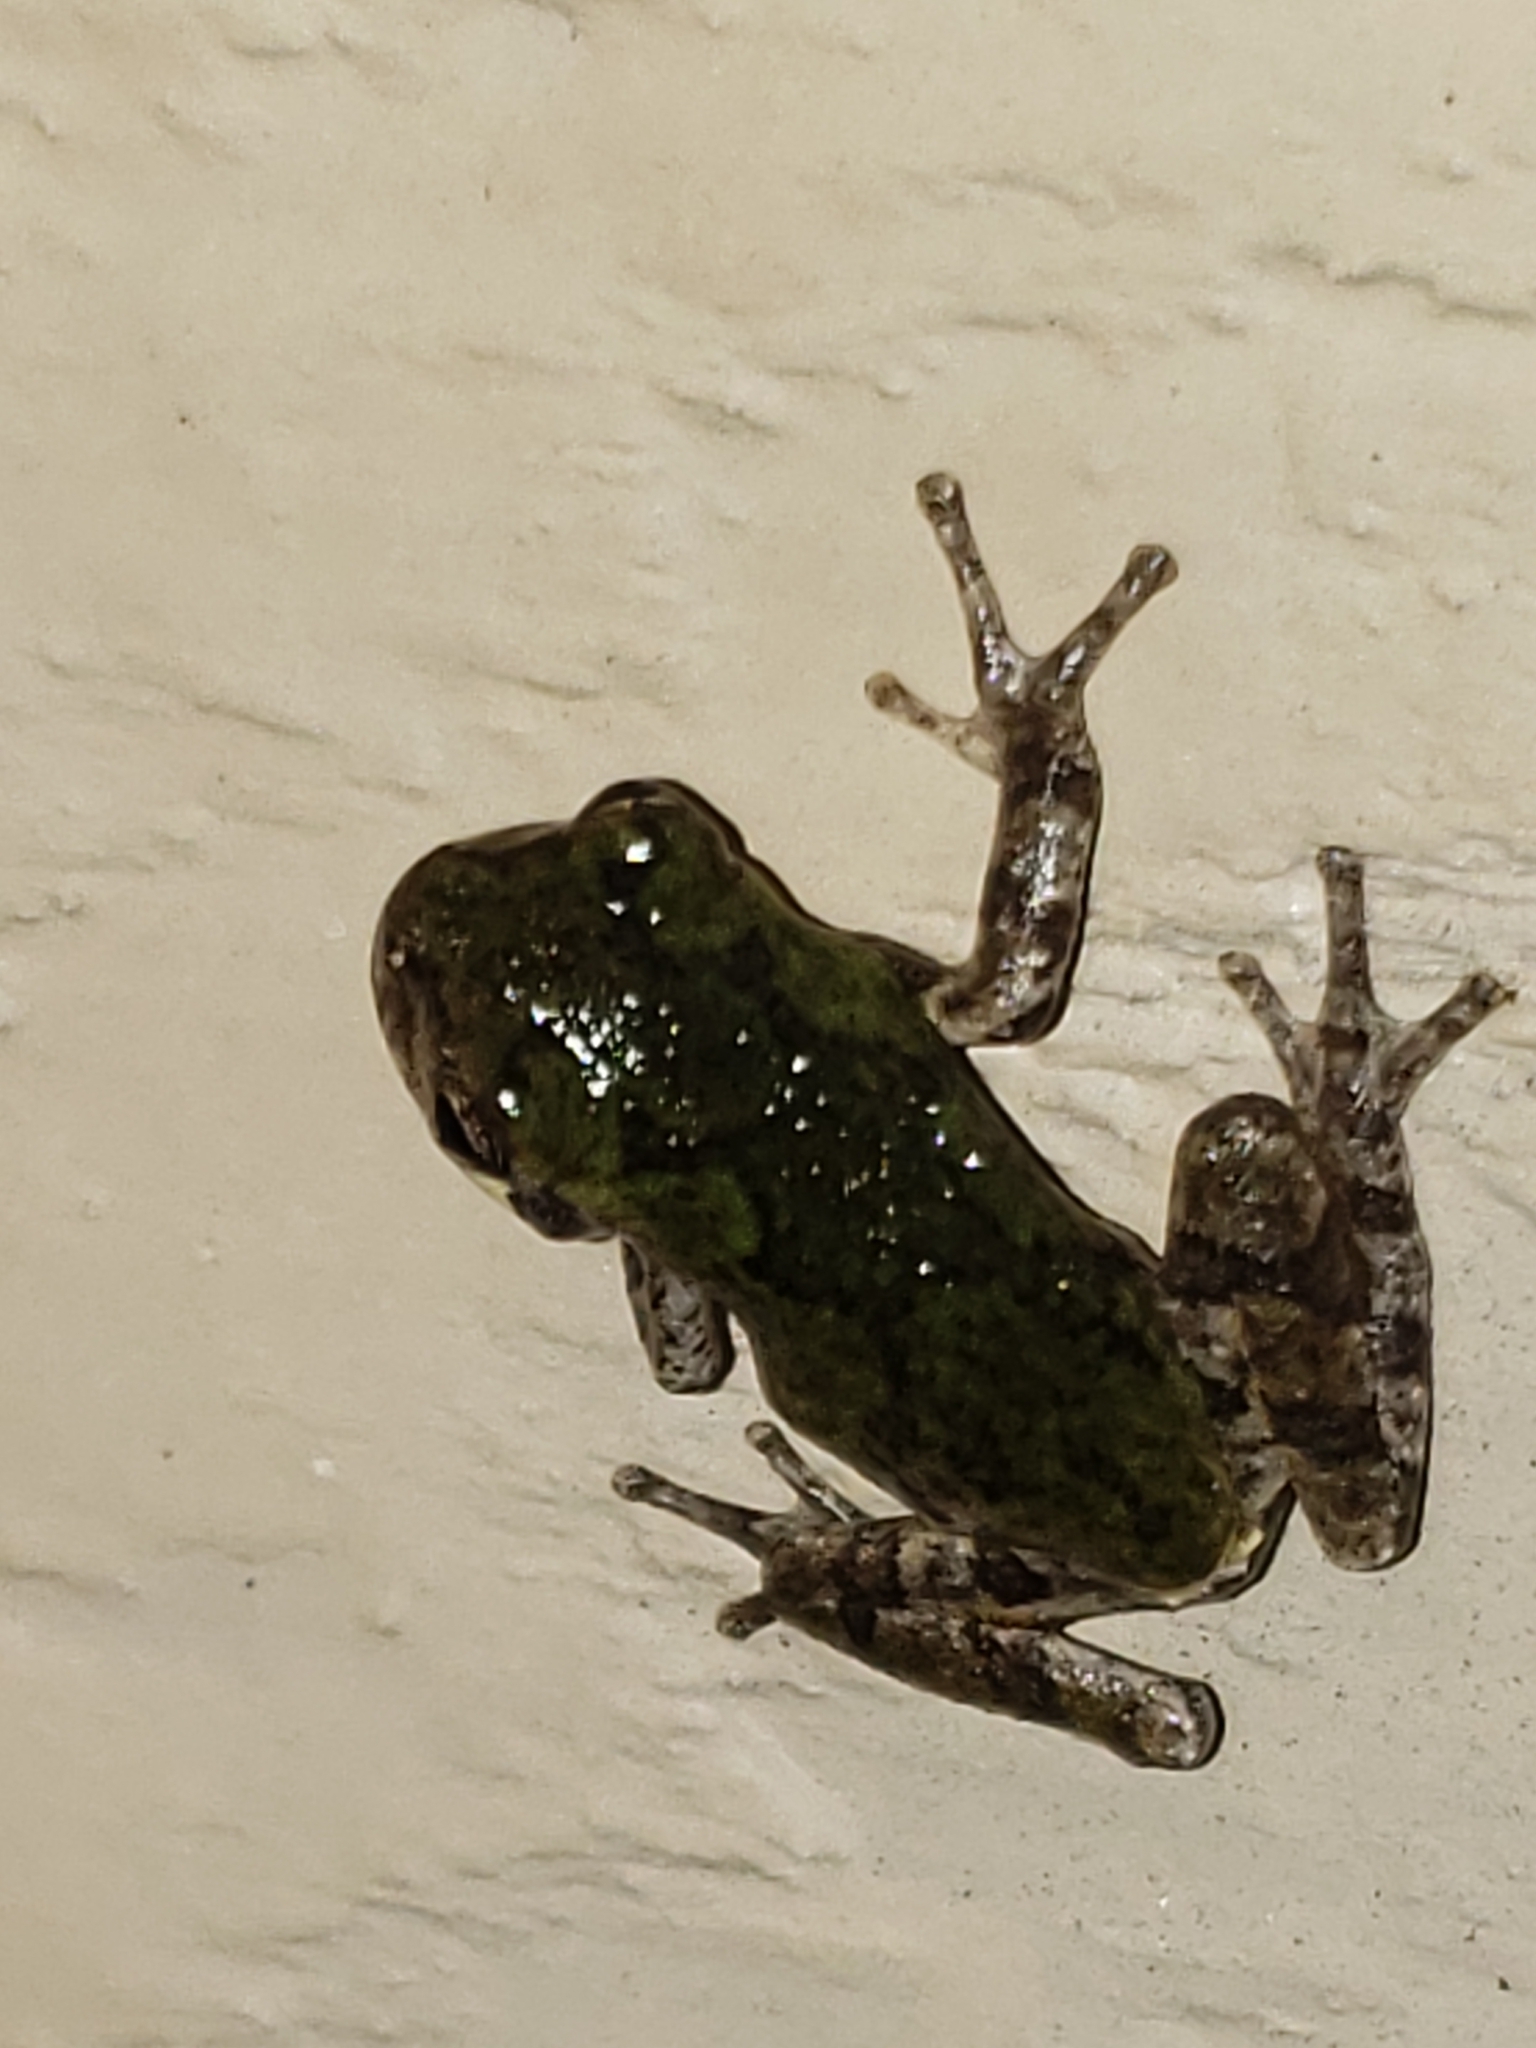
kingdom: Animalia
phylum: Chordata
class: Amphibia
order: Anura
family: Hylidae
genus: Hyla
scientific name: Hyla
